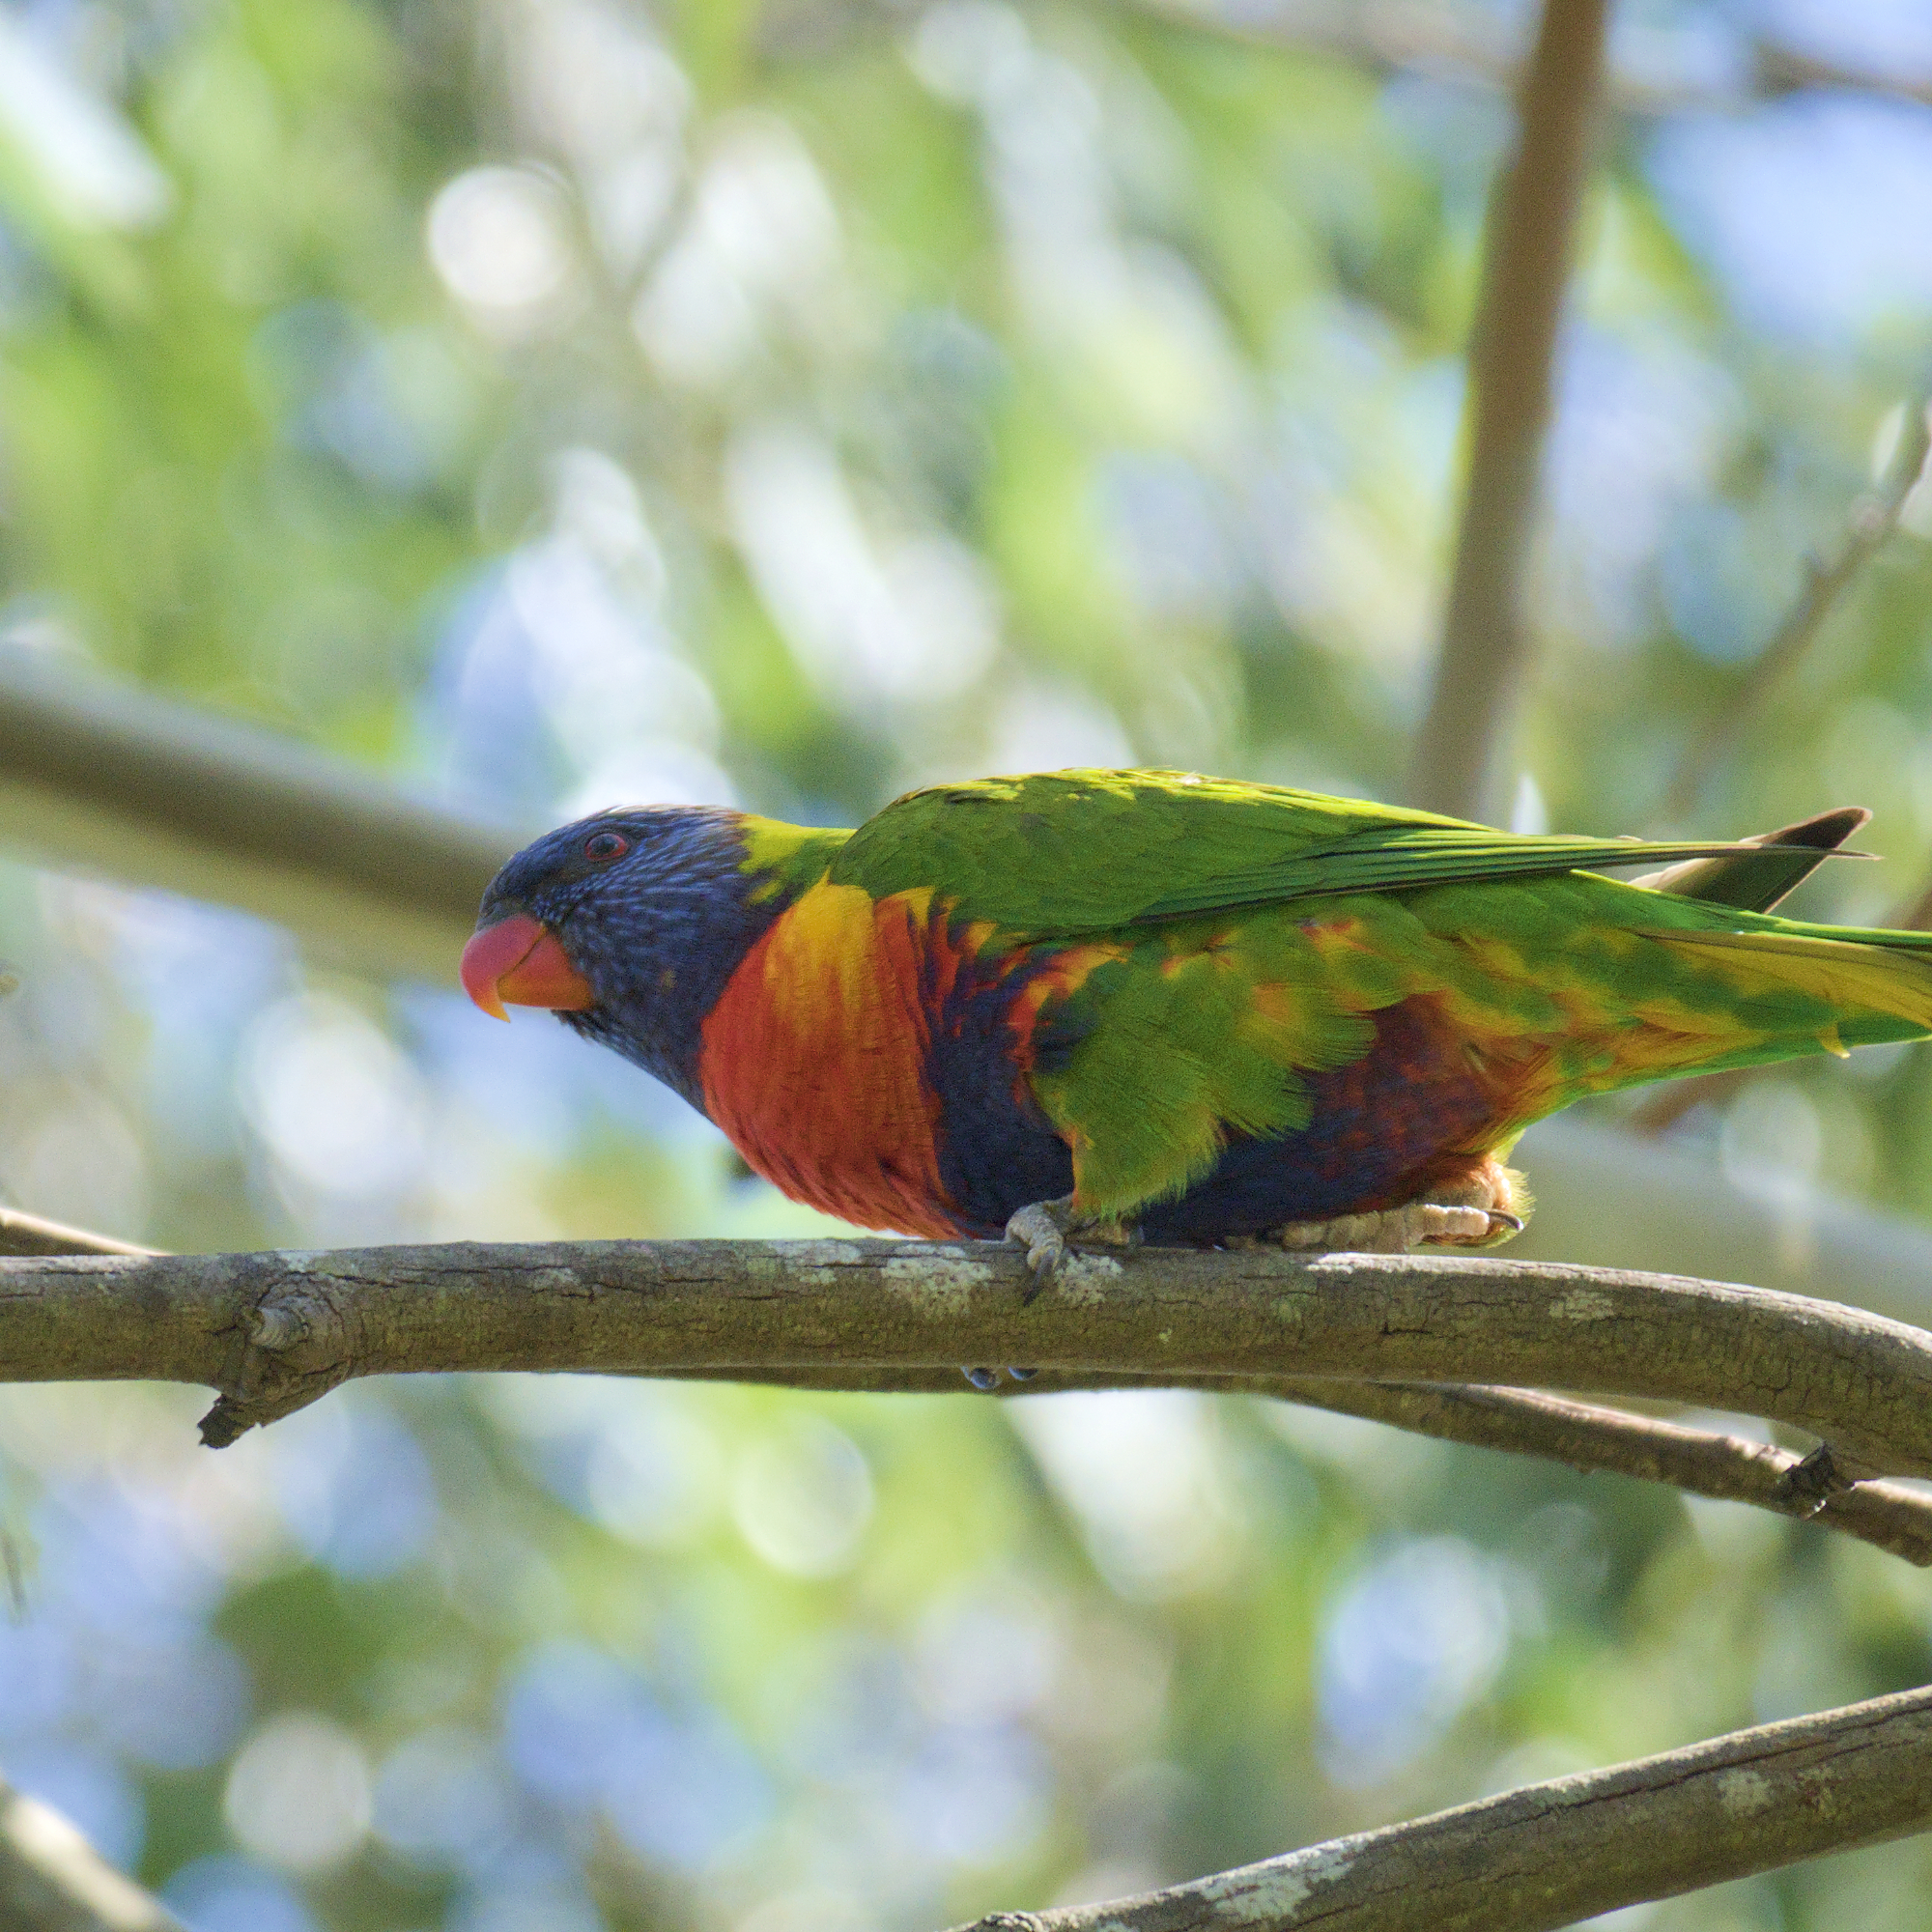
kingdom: Animalia
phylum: Chordata
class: Aves
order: Psittaciformes
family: Psittacidae
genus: Trichoglossus
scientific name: Trichoglossus haematodus
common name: Coconut lorikeet
